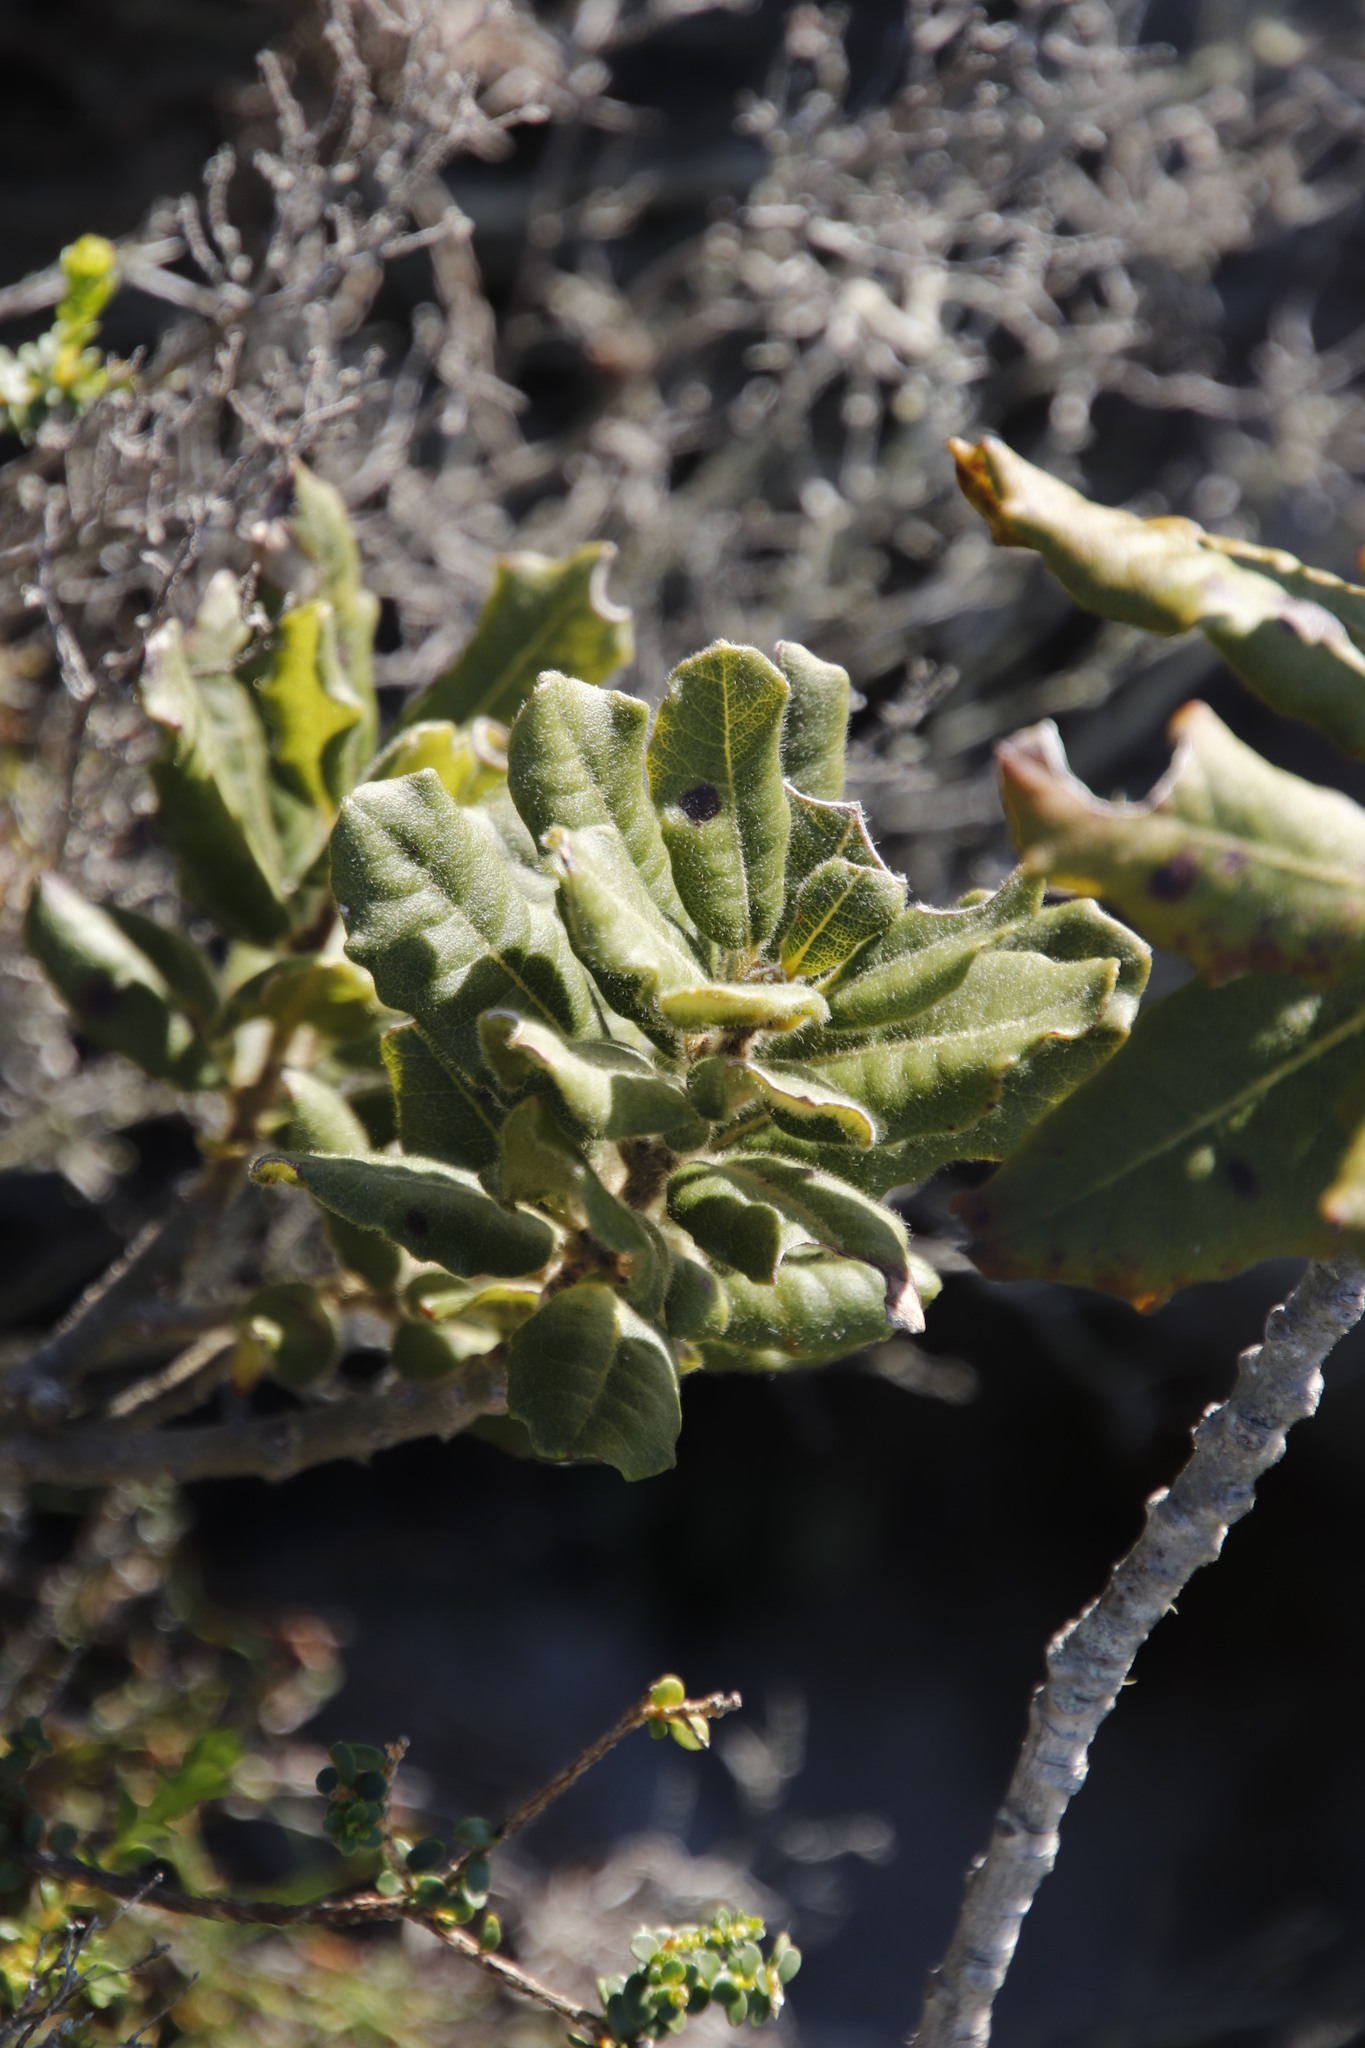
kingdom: Plantae
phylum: Tracheophyta
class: Magnoliopsida
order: Fagales
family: Myricaceae
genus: Morella
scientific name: Morella kraussiana
